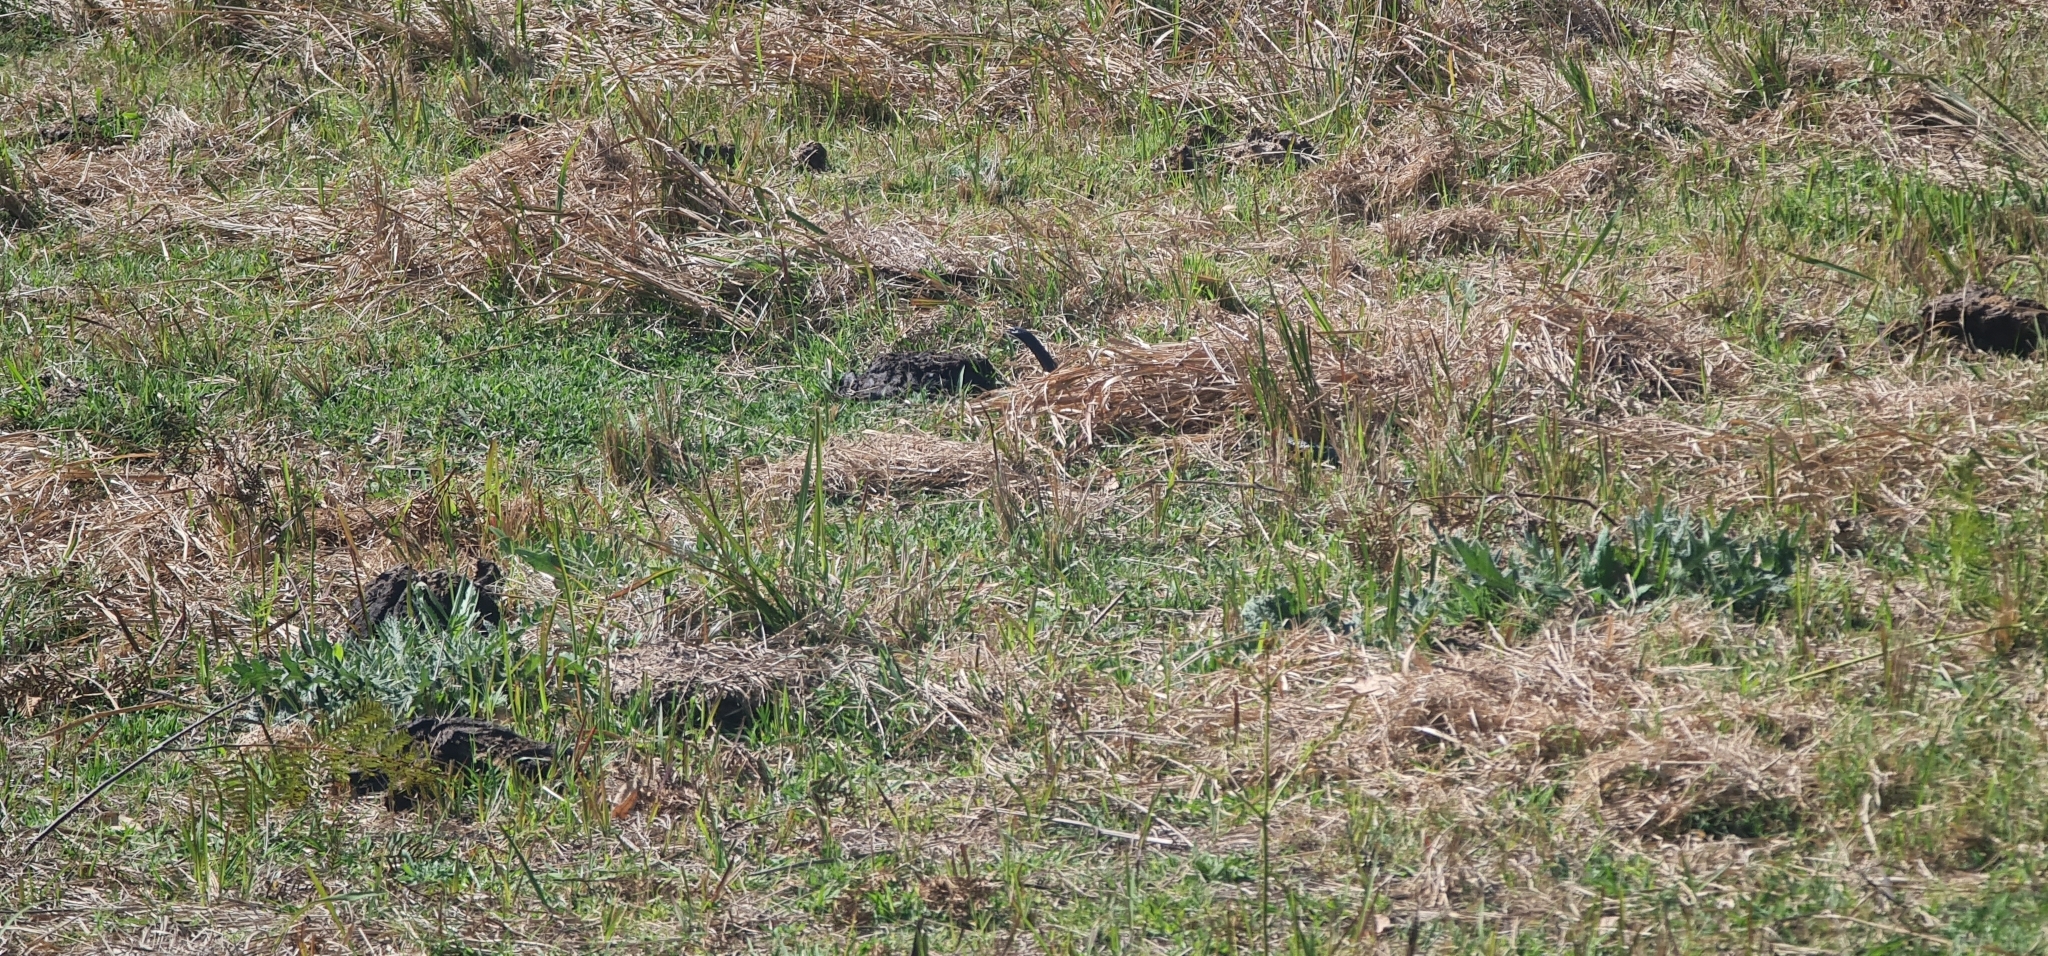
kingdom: Animalia
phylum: Chordata
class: Squamata
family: Elapidae
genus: Pseudechis
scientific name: Pseudechis porphyriacus
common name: Australian black snake
